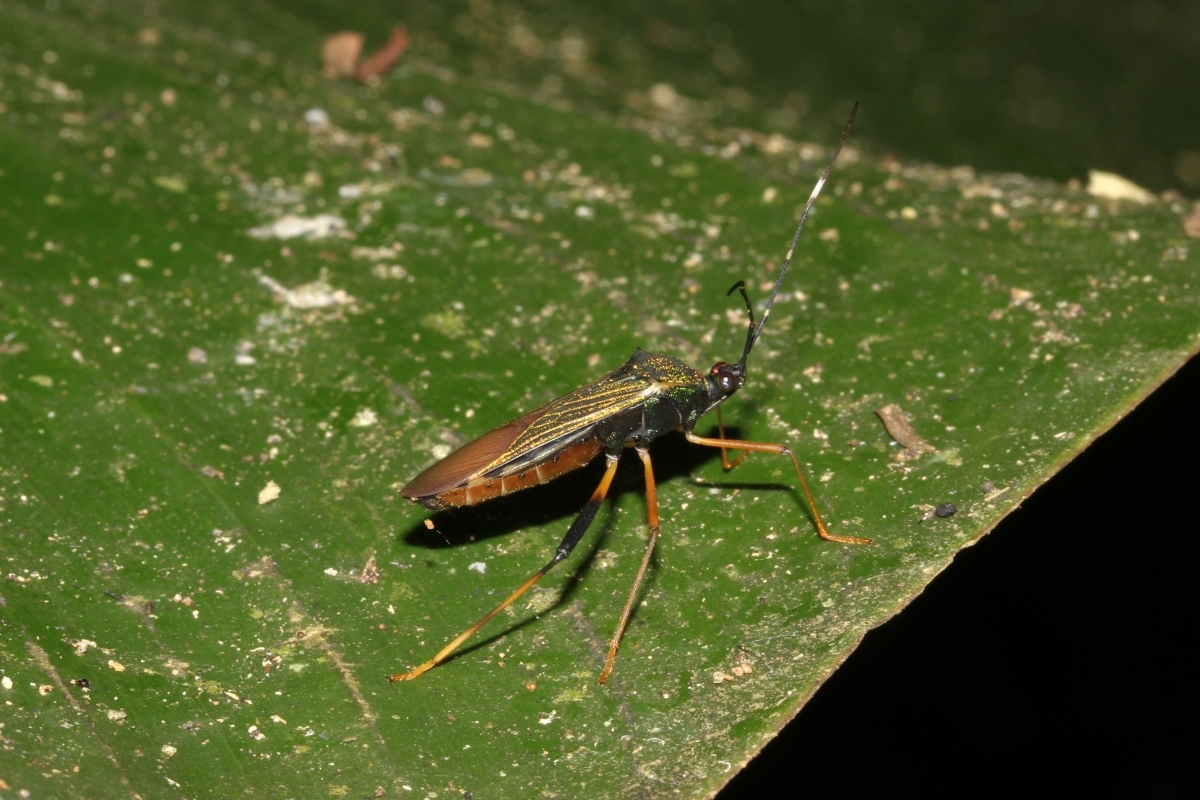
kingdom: Animalia
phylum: Arthropoda
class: Insecta
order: Hemiptera
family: Coreidae
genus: Petalops
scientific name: Petalops azureus
